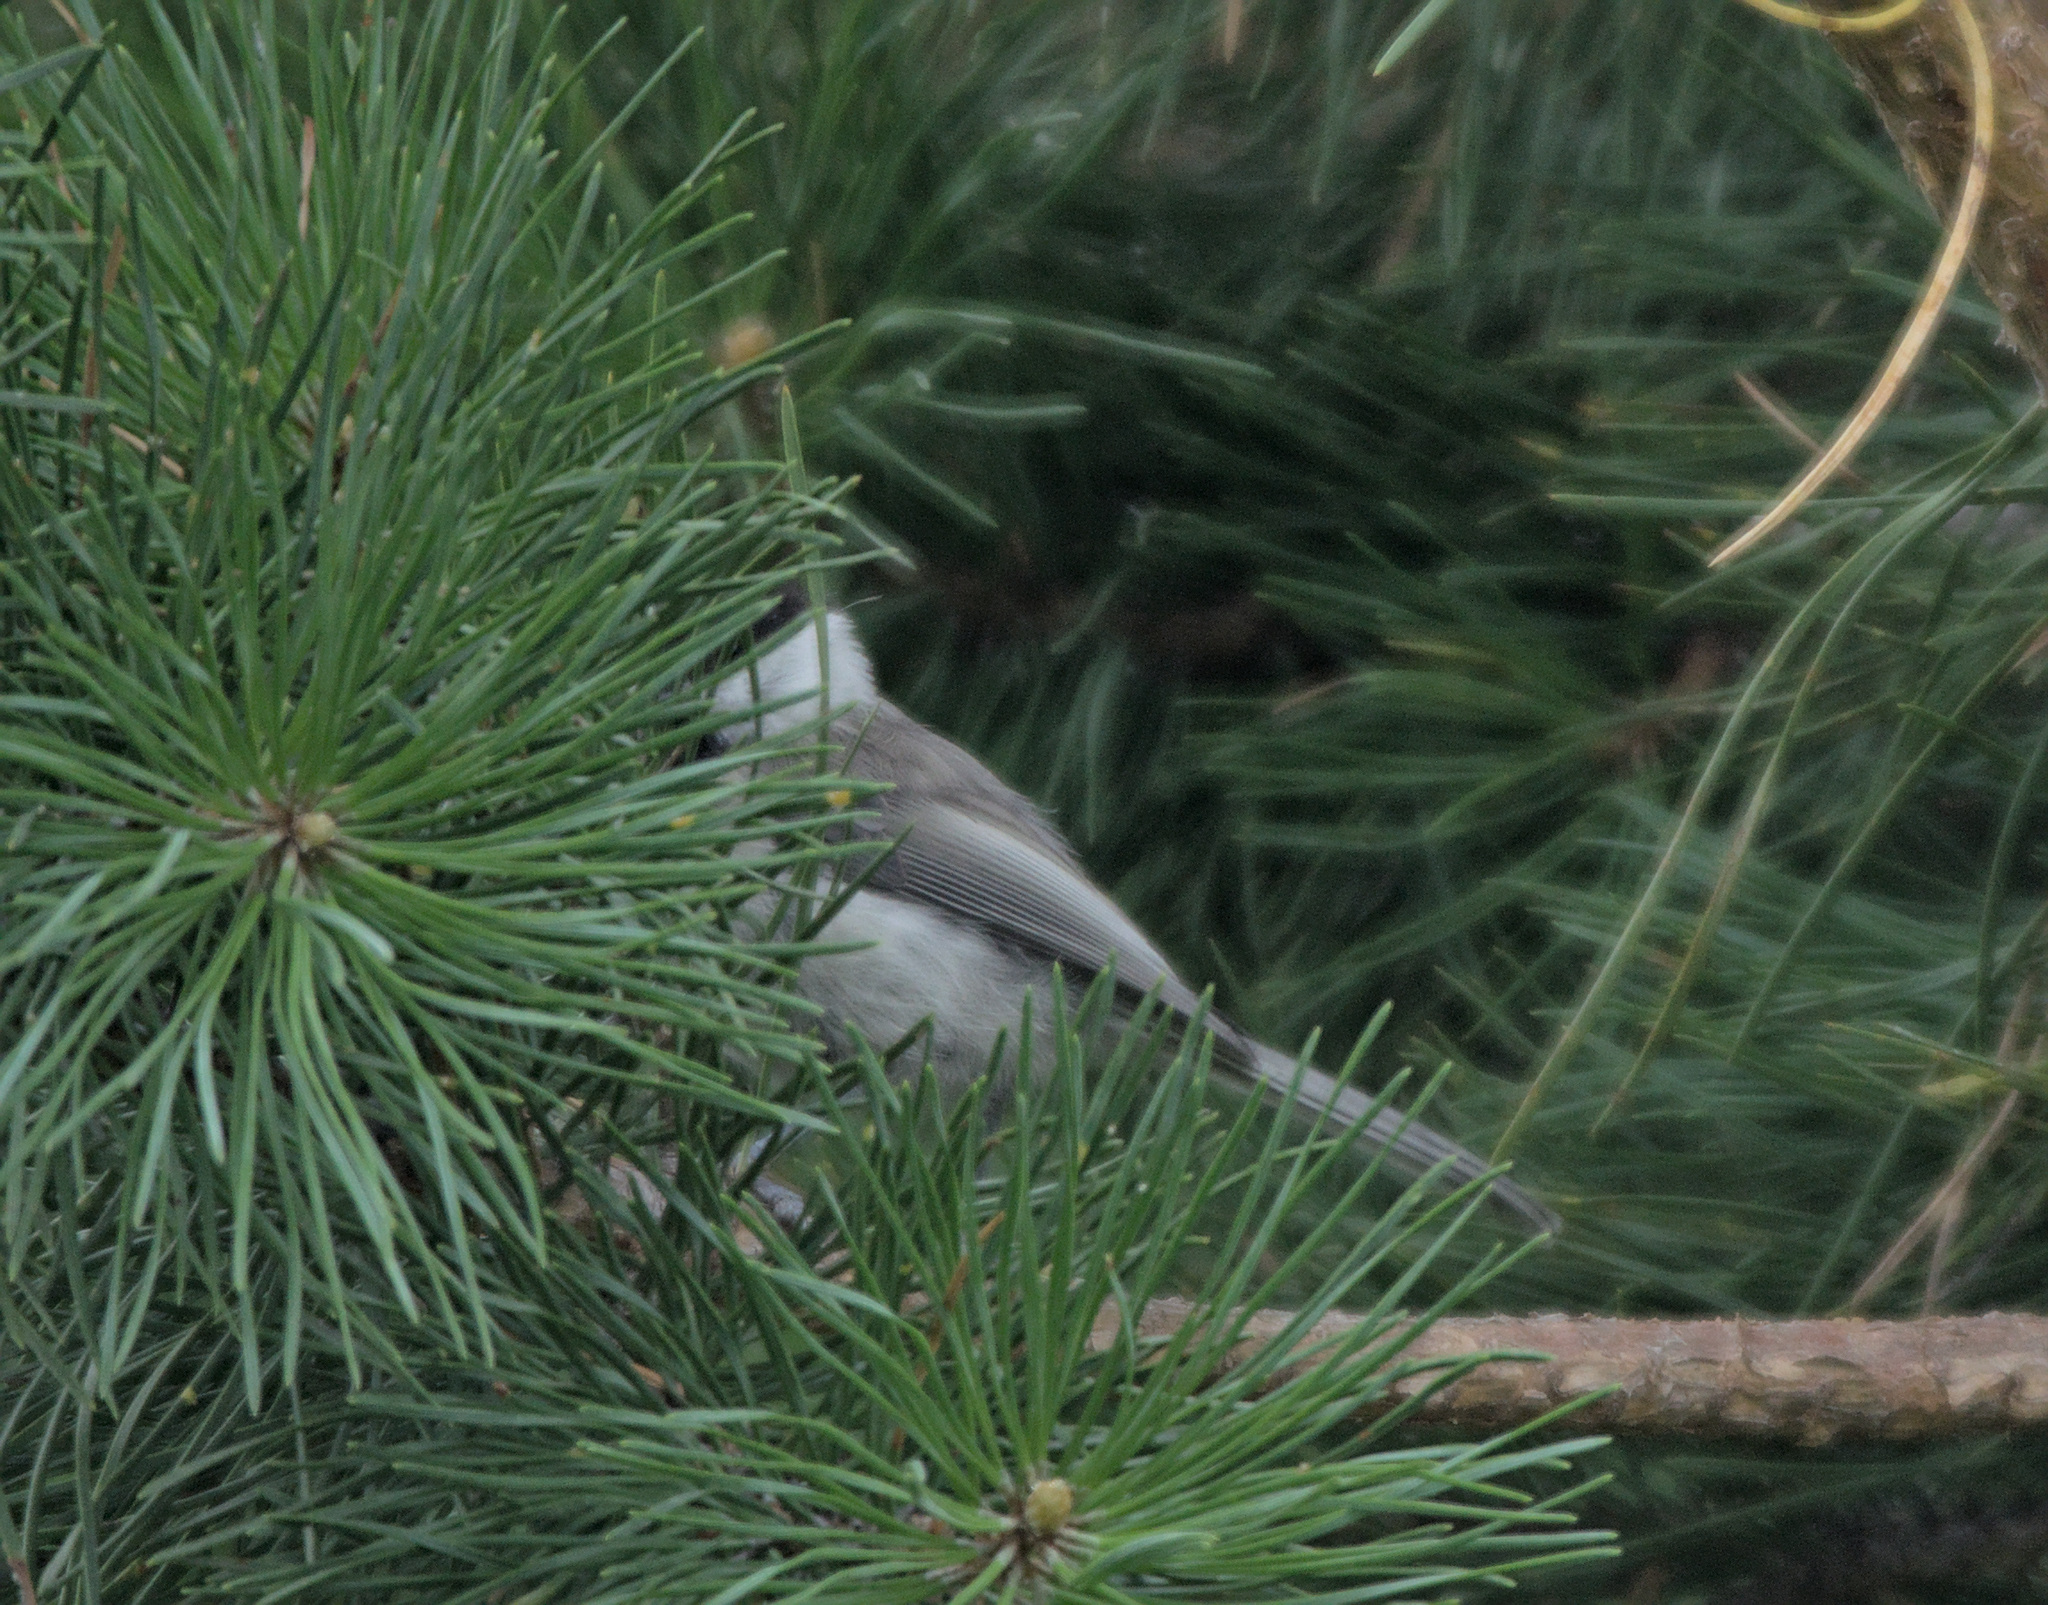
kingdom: Animalia
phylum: Chordata
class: Aves
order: Passeriformes
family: Paridae
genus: Poecile
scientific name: Poecile montanus
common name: Willow tit
